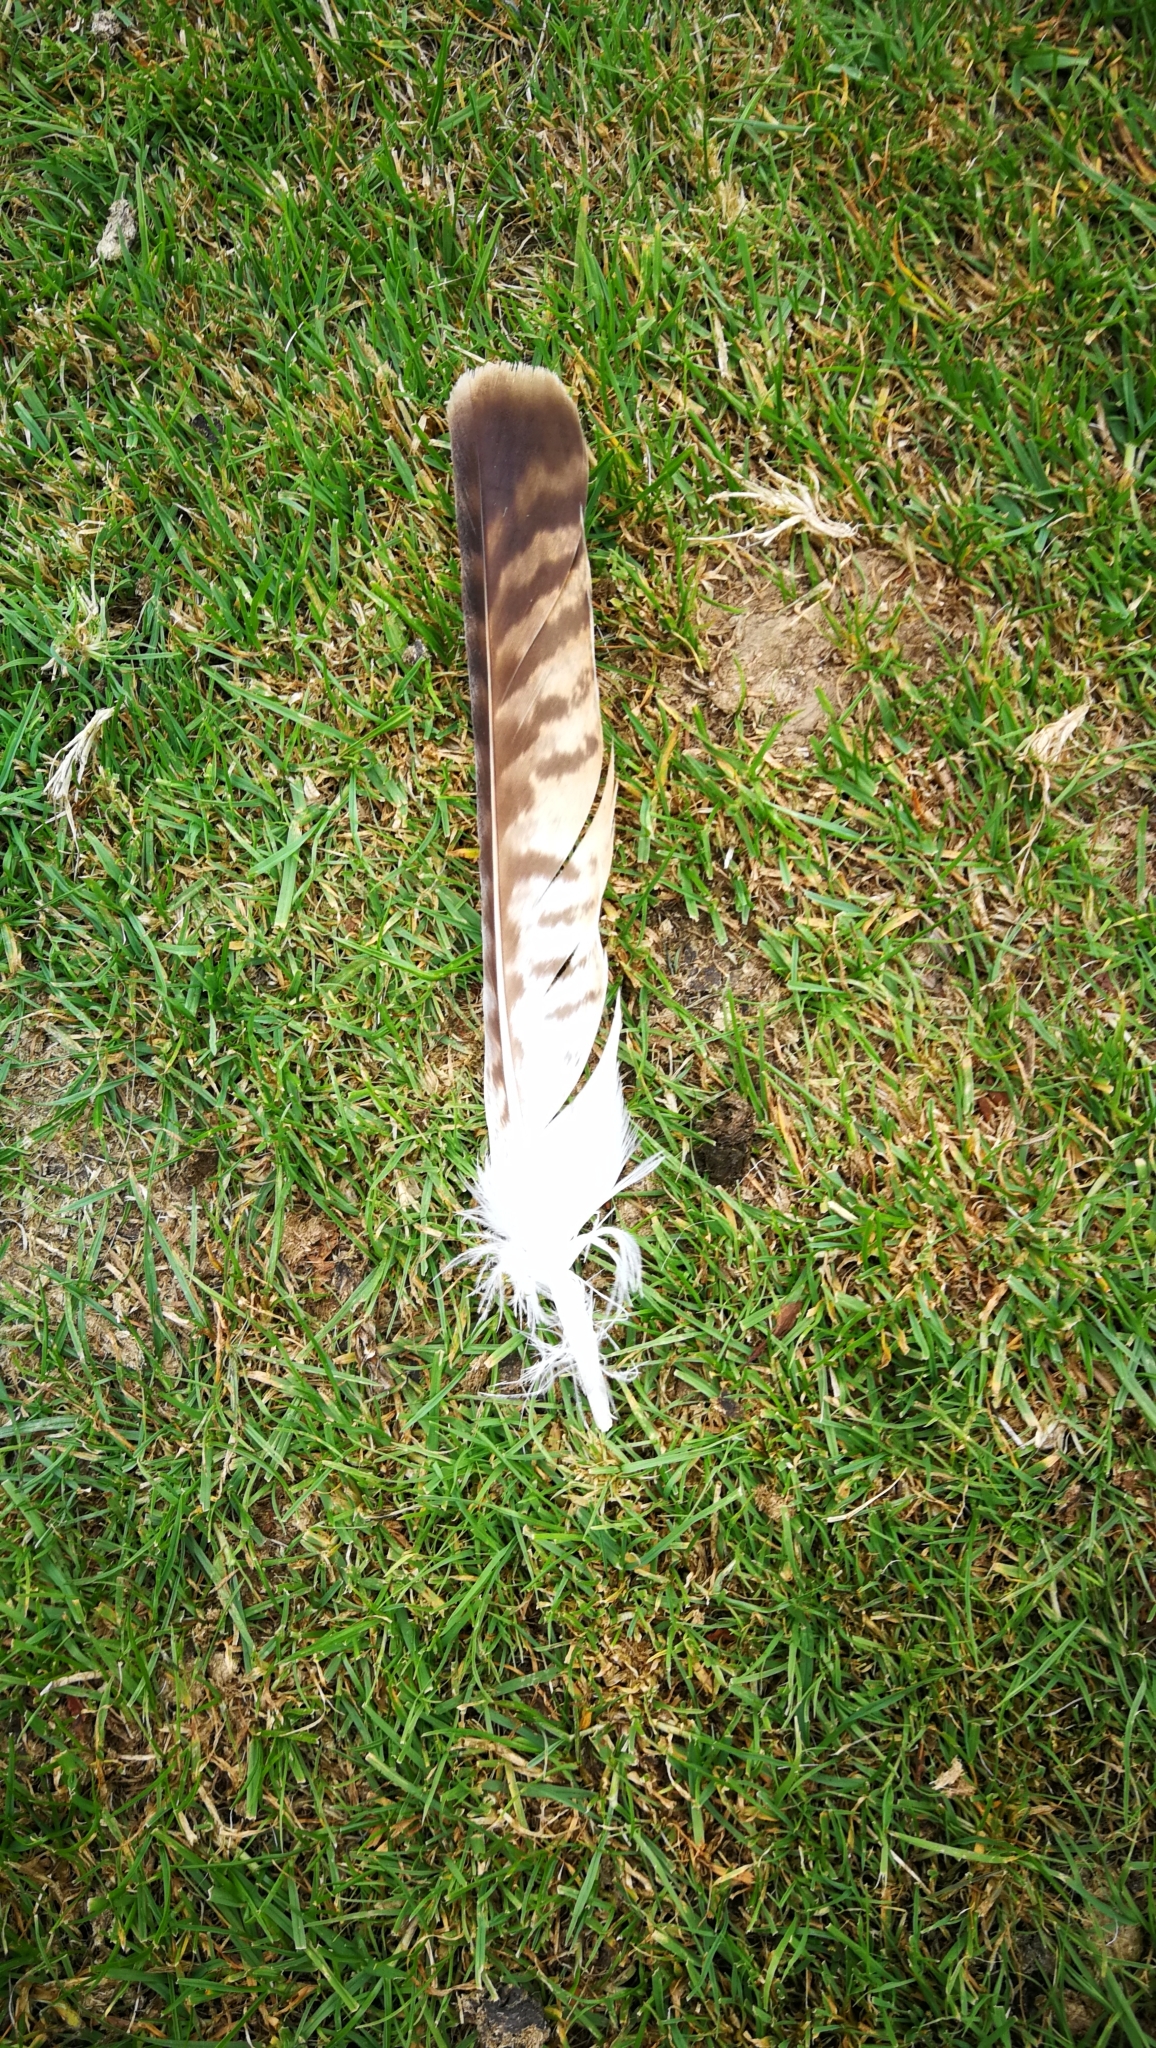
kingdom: Animalia
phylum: Chordata
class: Aves
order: Accipitriformes
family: Accipitridae
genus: Buteo
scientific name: Buteo buteo
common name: Common buzzard
